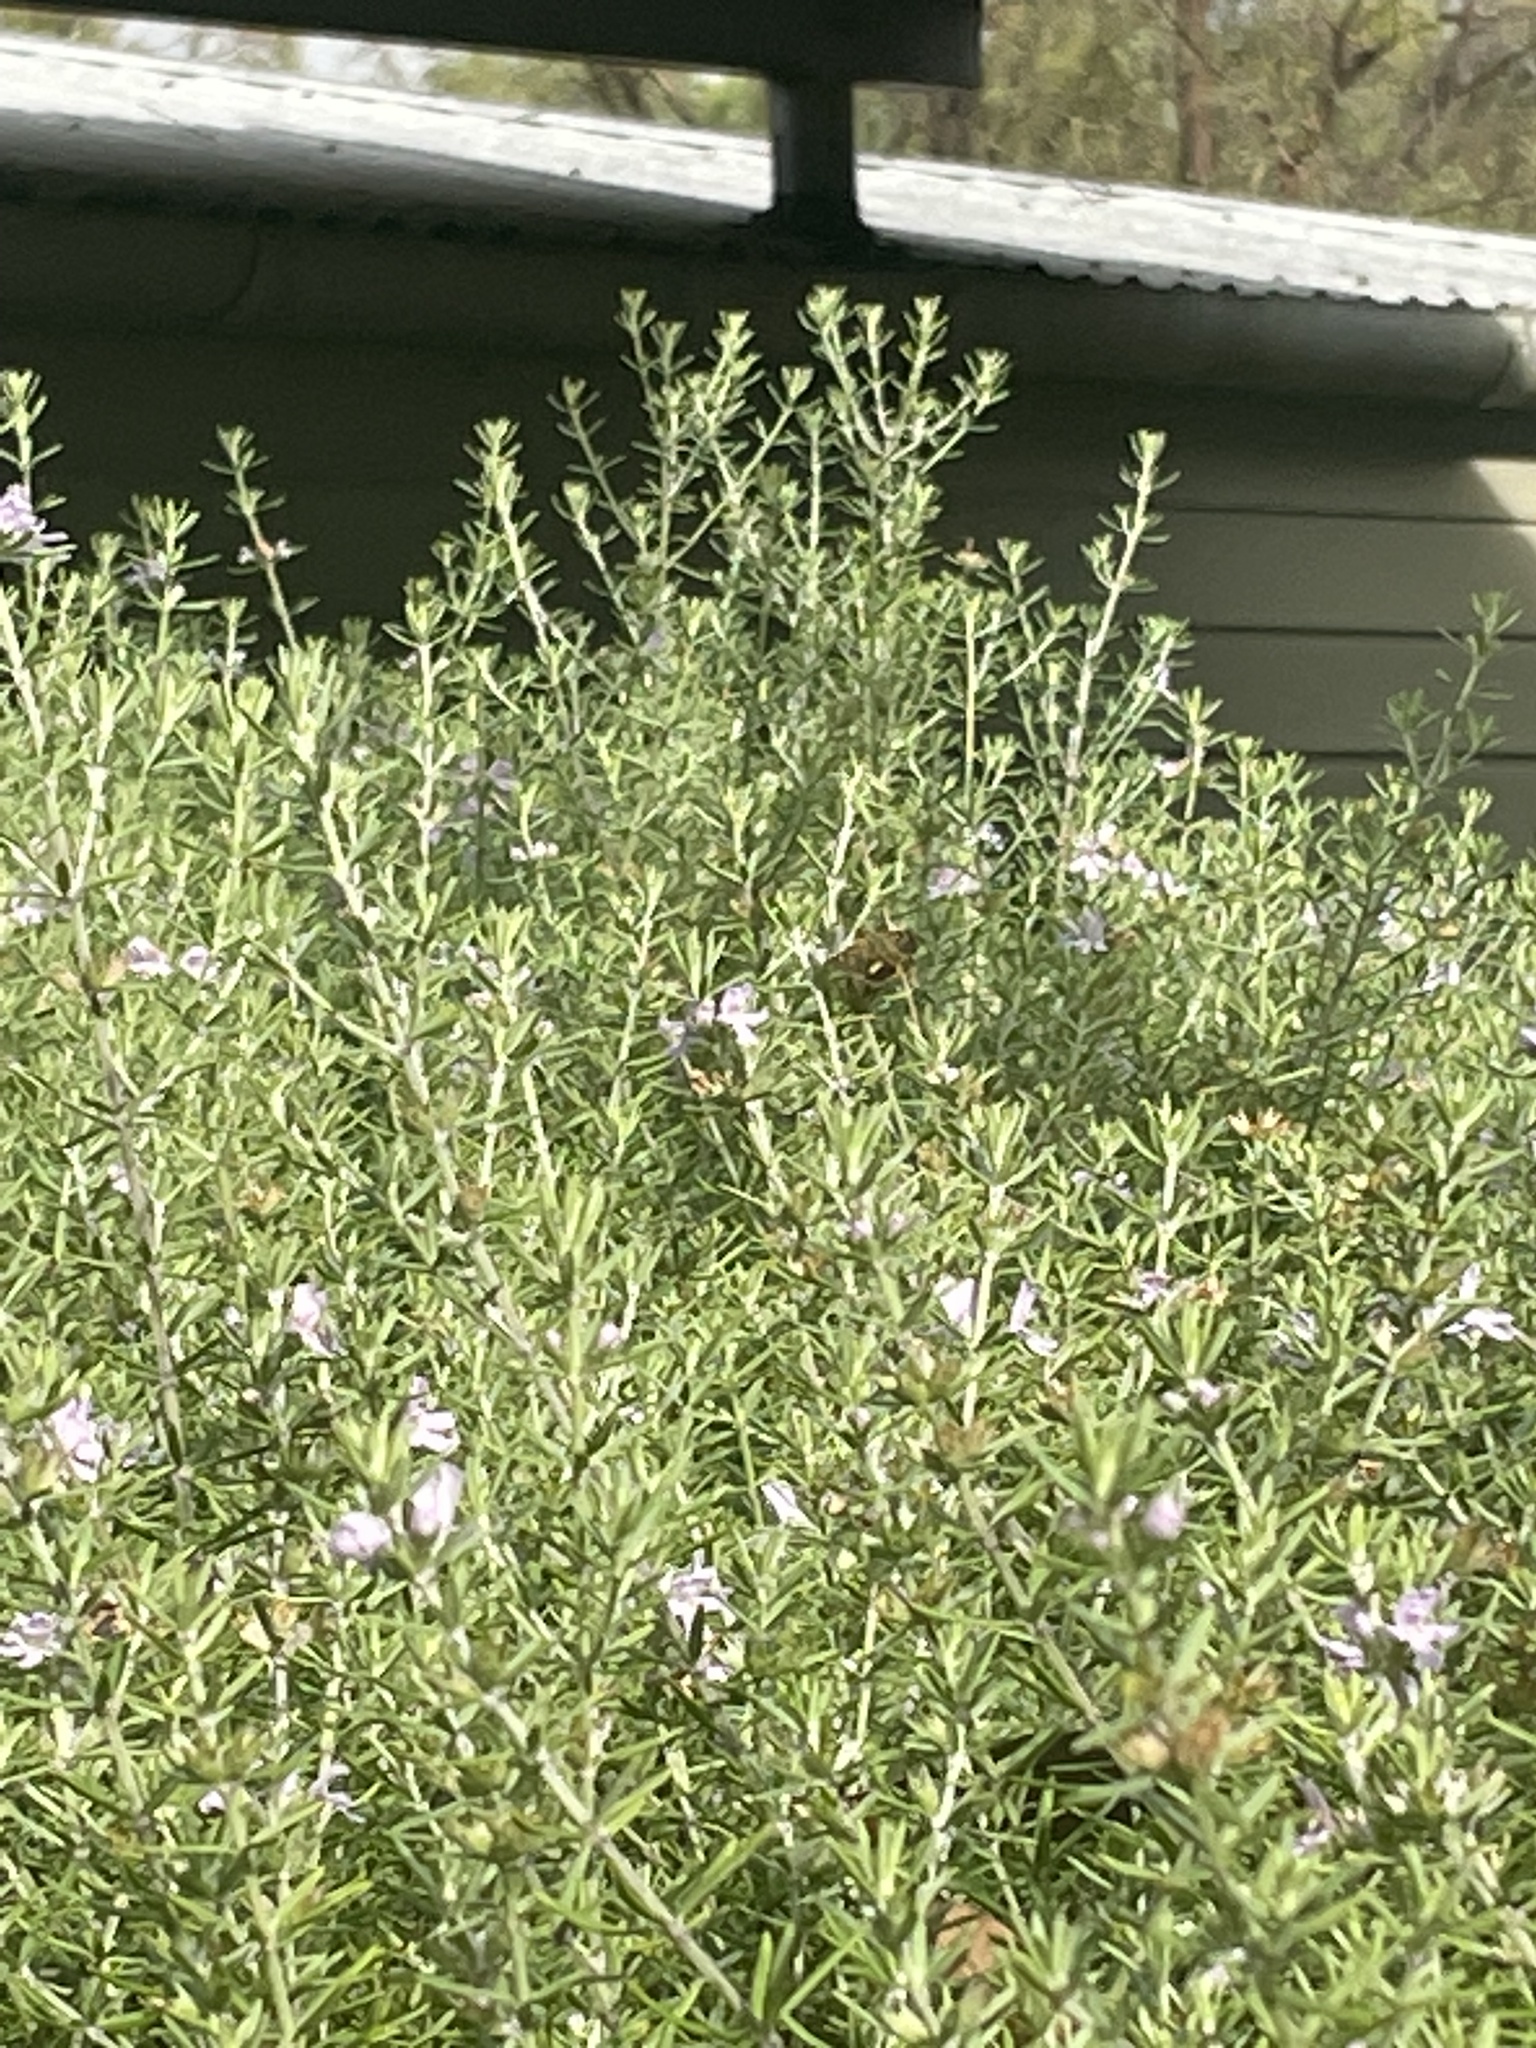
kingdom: Animalia
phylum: Arthropoda
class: Insecta
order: Lepidoptera
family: Hesperiidae
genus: Dispar
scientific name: Dispar compacta
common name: Barred skipper
